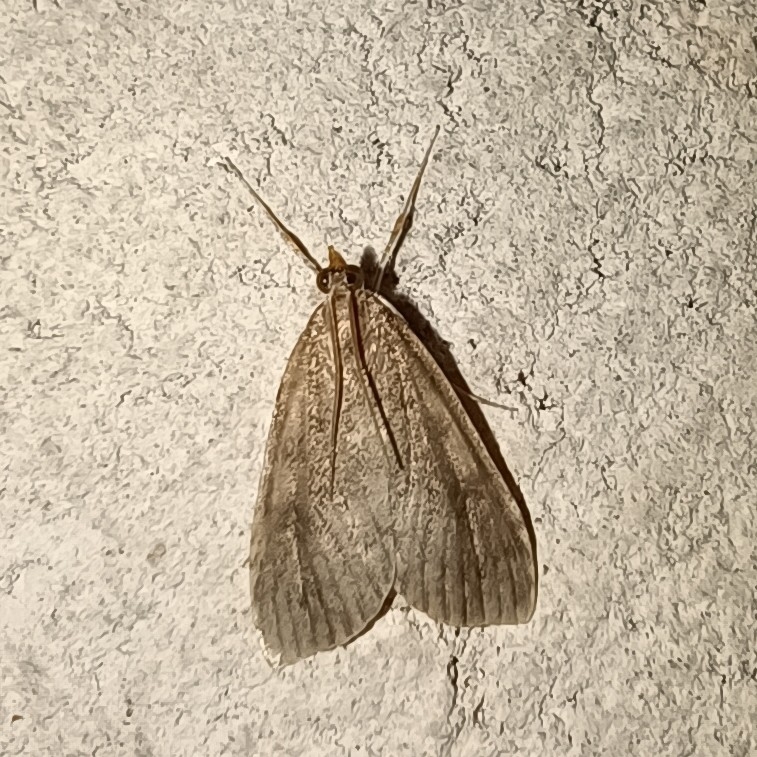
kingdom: Animalia
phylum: Arthropoda
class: Insecta
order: Lepidoptera
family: Crambidae
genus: Udea
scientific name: Udea prunalis
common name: Dusky pearl
